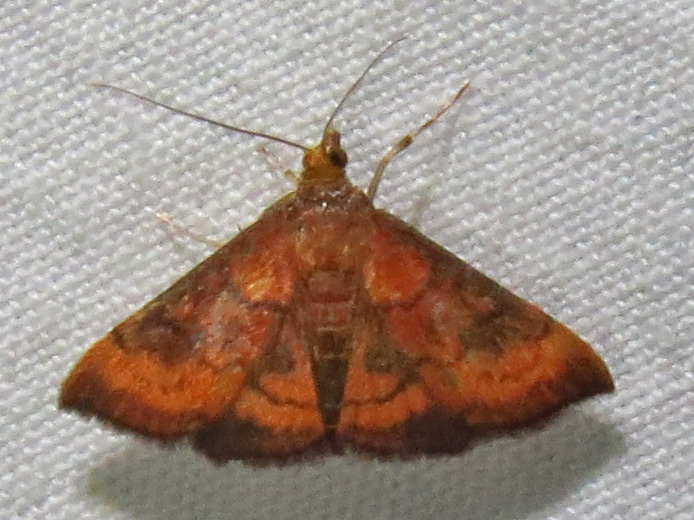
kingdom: Animalia
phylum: Arthropoda
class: Insecta
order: Lepidoptera
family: Crambidae
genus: Pyrausta
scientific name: Pyrausta rubricalis
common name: Variable reddish pyrausta
